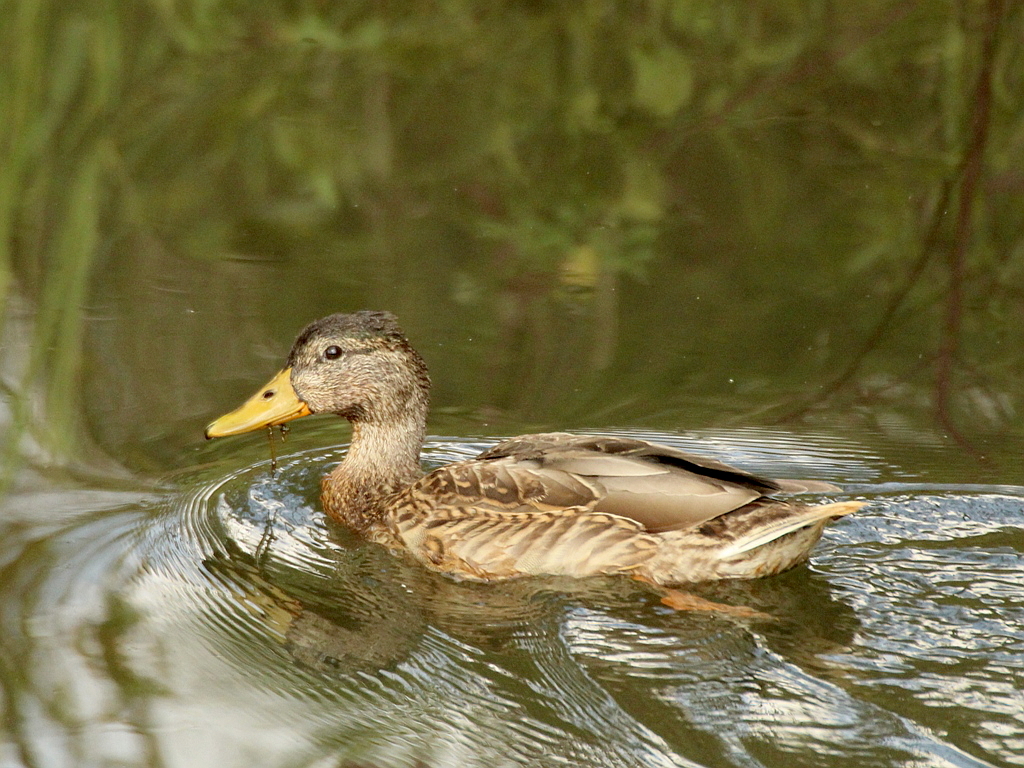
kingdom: Animalia
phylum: Chordata
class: Aves
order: Anseriformes
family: Anatidae
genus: Anas
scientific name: Anas platyrhynchos
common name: Mallard
